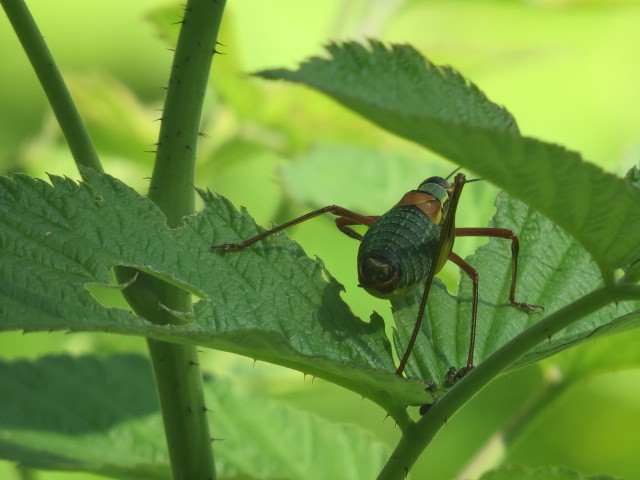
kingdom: Animalia
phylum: Arthropoda
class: Insecta
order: Orthoptera
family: Tettigoniidae
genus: Barbitistes
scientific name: Barbitistes obtusus
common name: Alpine saw bush-cricket
